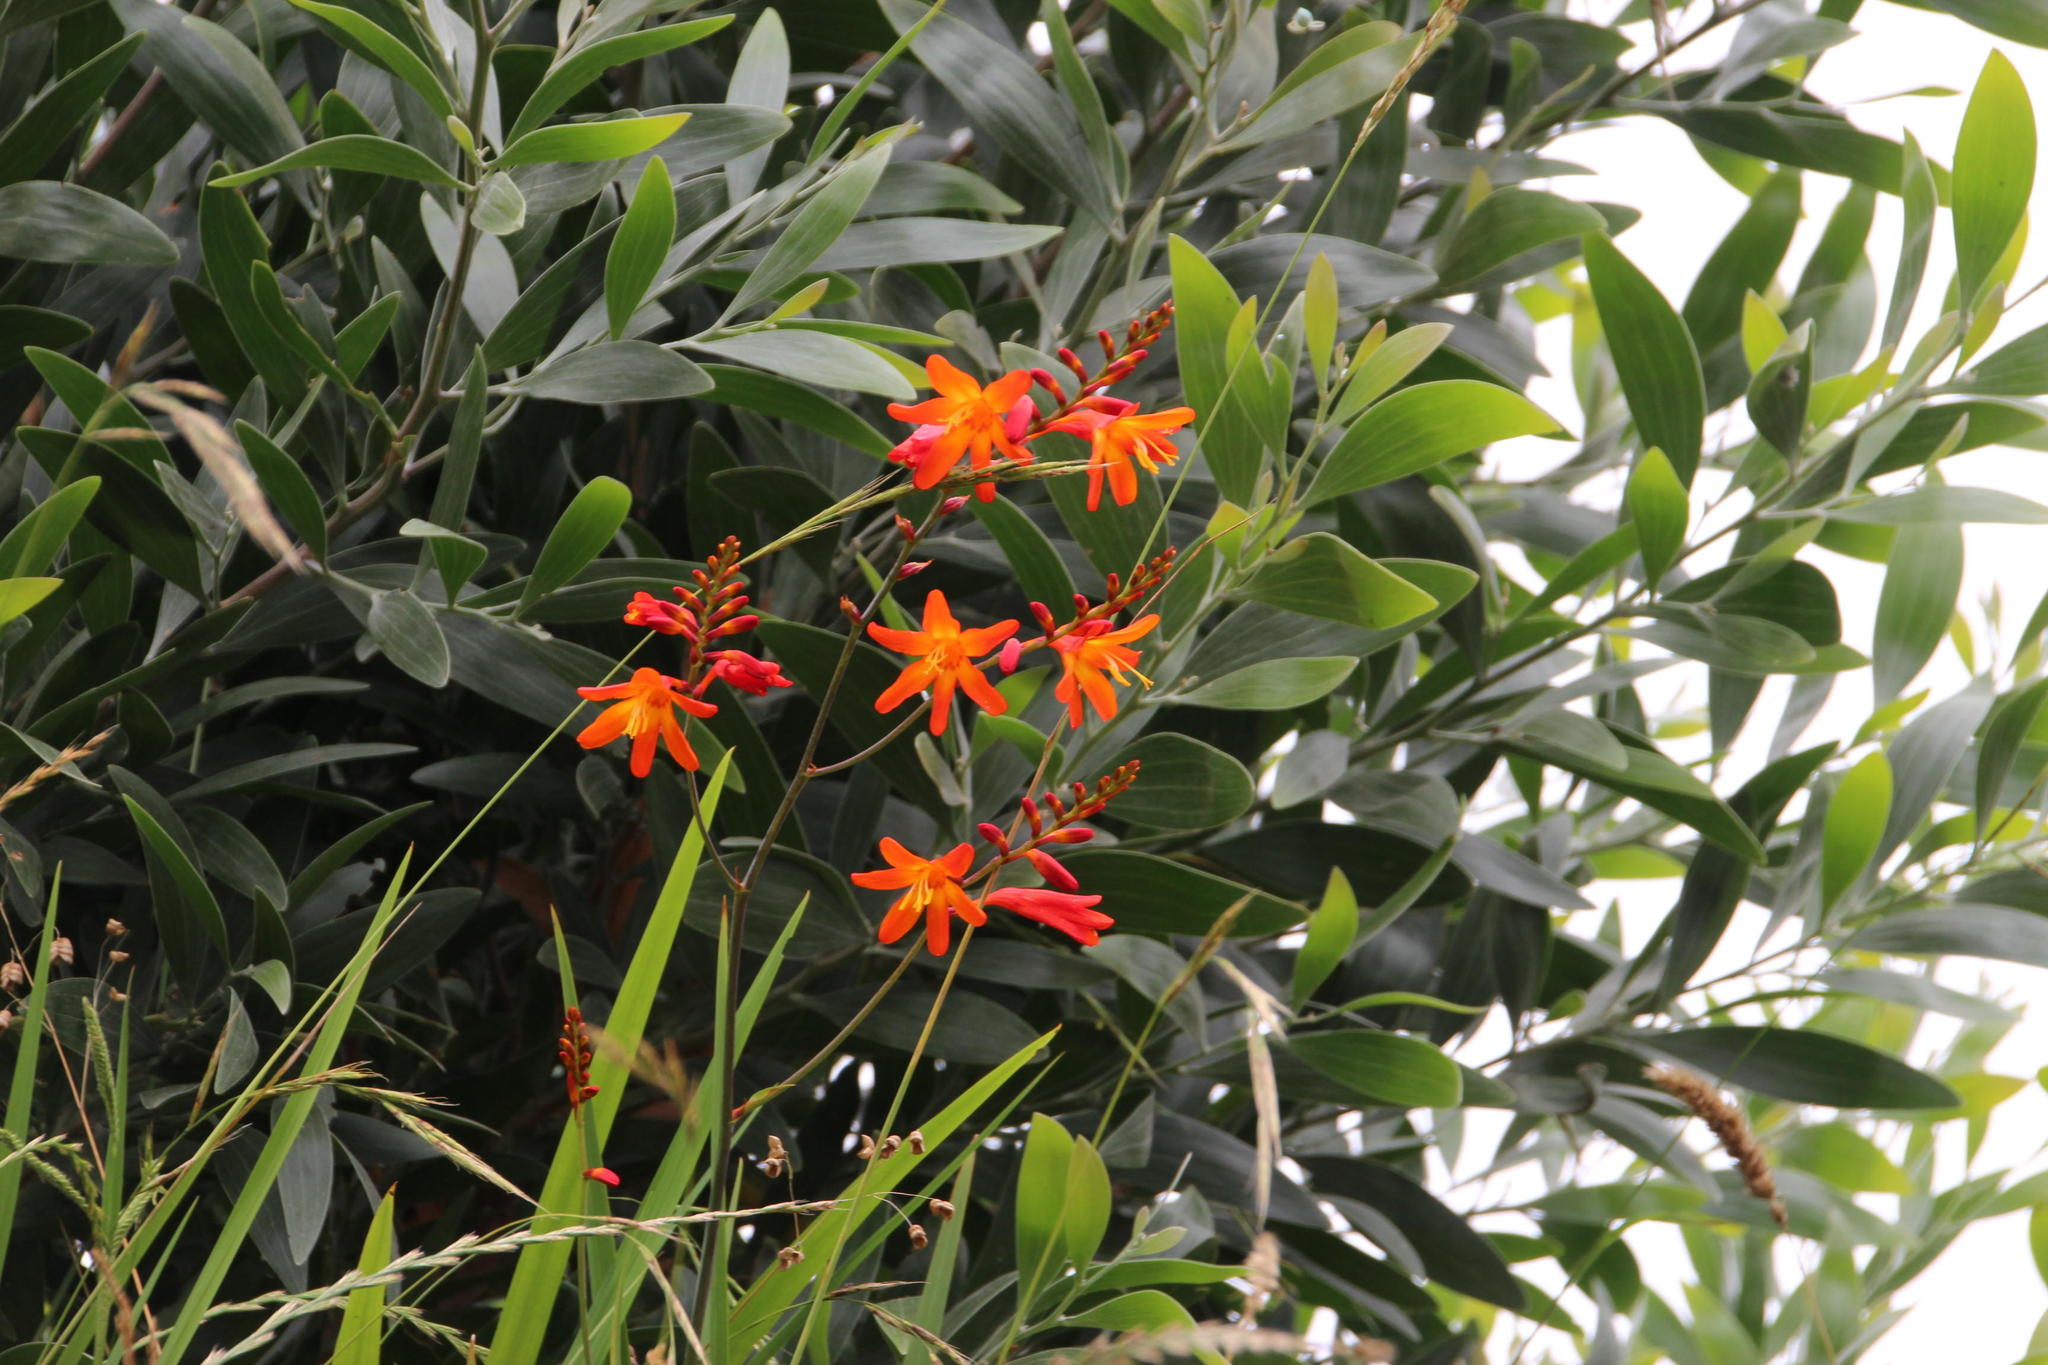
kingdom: Plantae
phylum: Tracheophyta
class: Liliopsida
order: Asparagales
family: Iridaceae
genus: Crocosmia
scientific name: Crocosmia crocosmiiflora
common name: Montbretia
